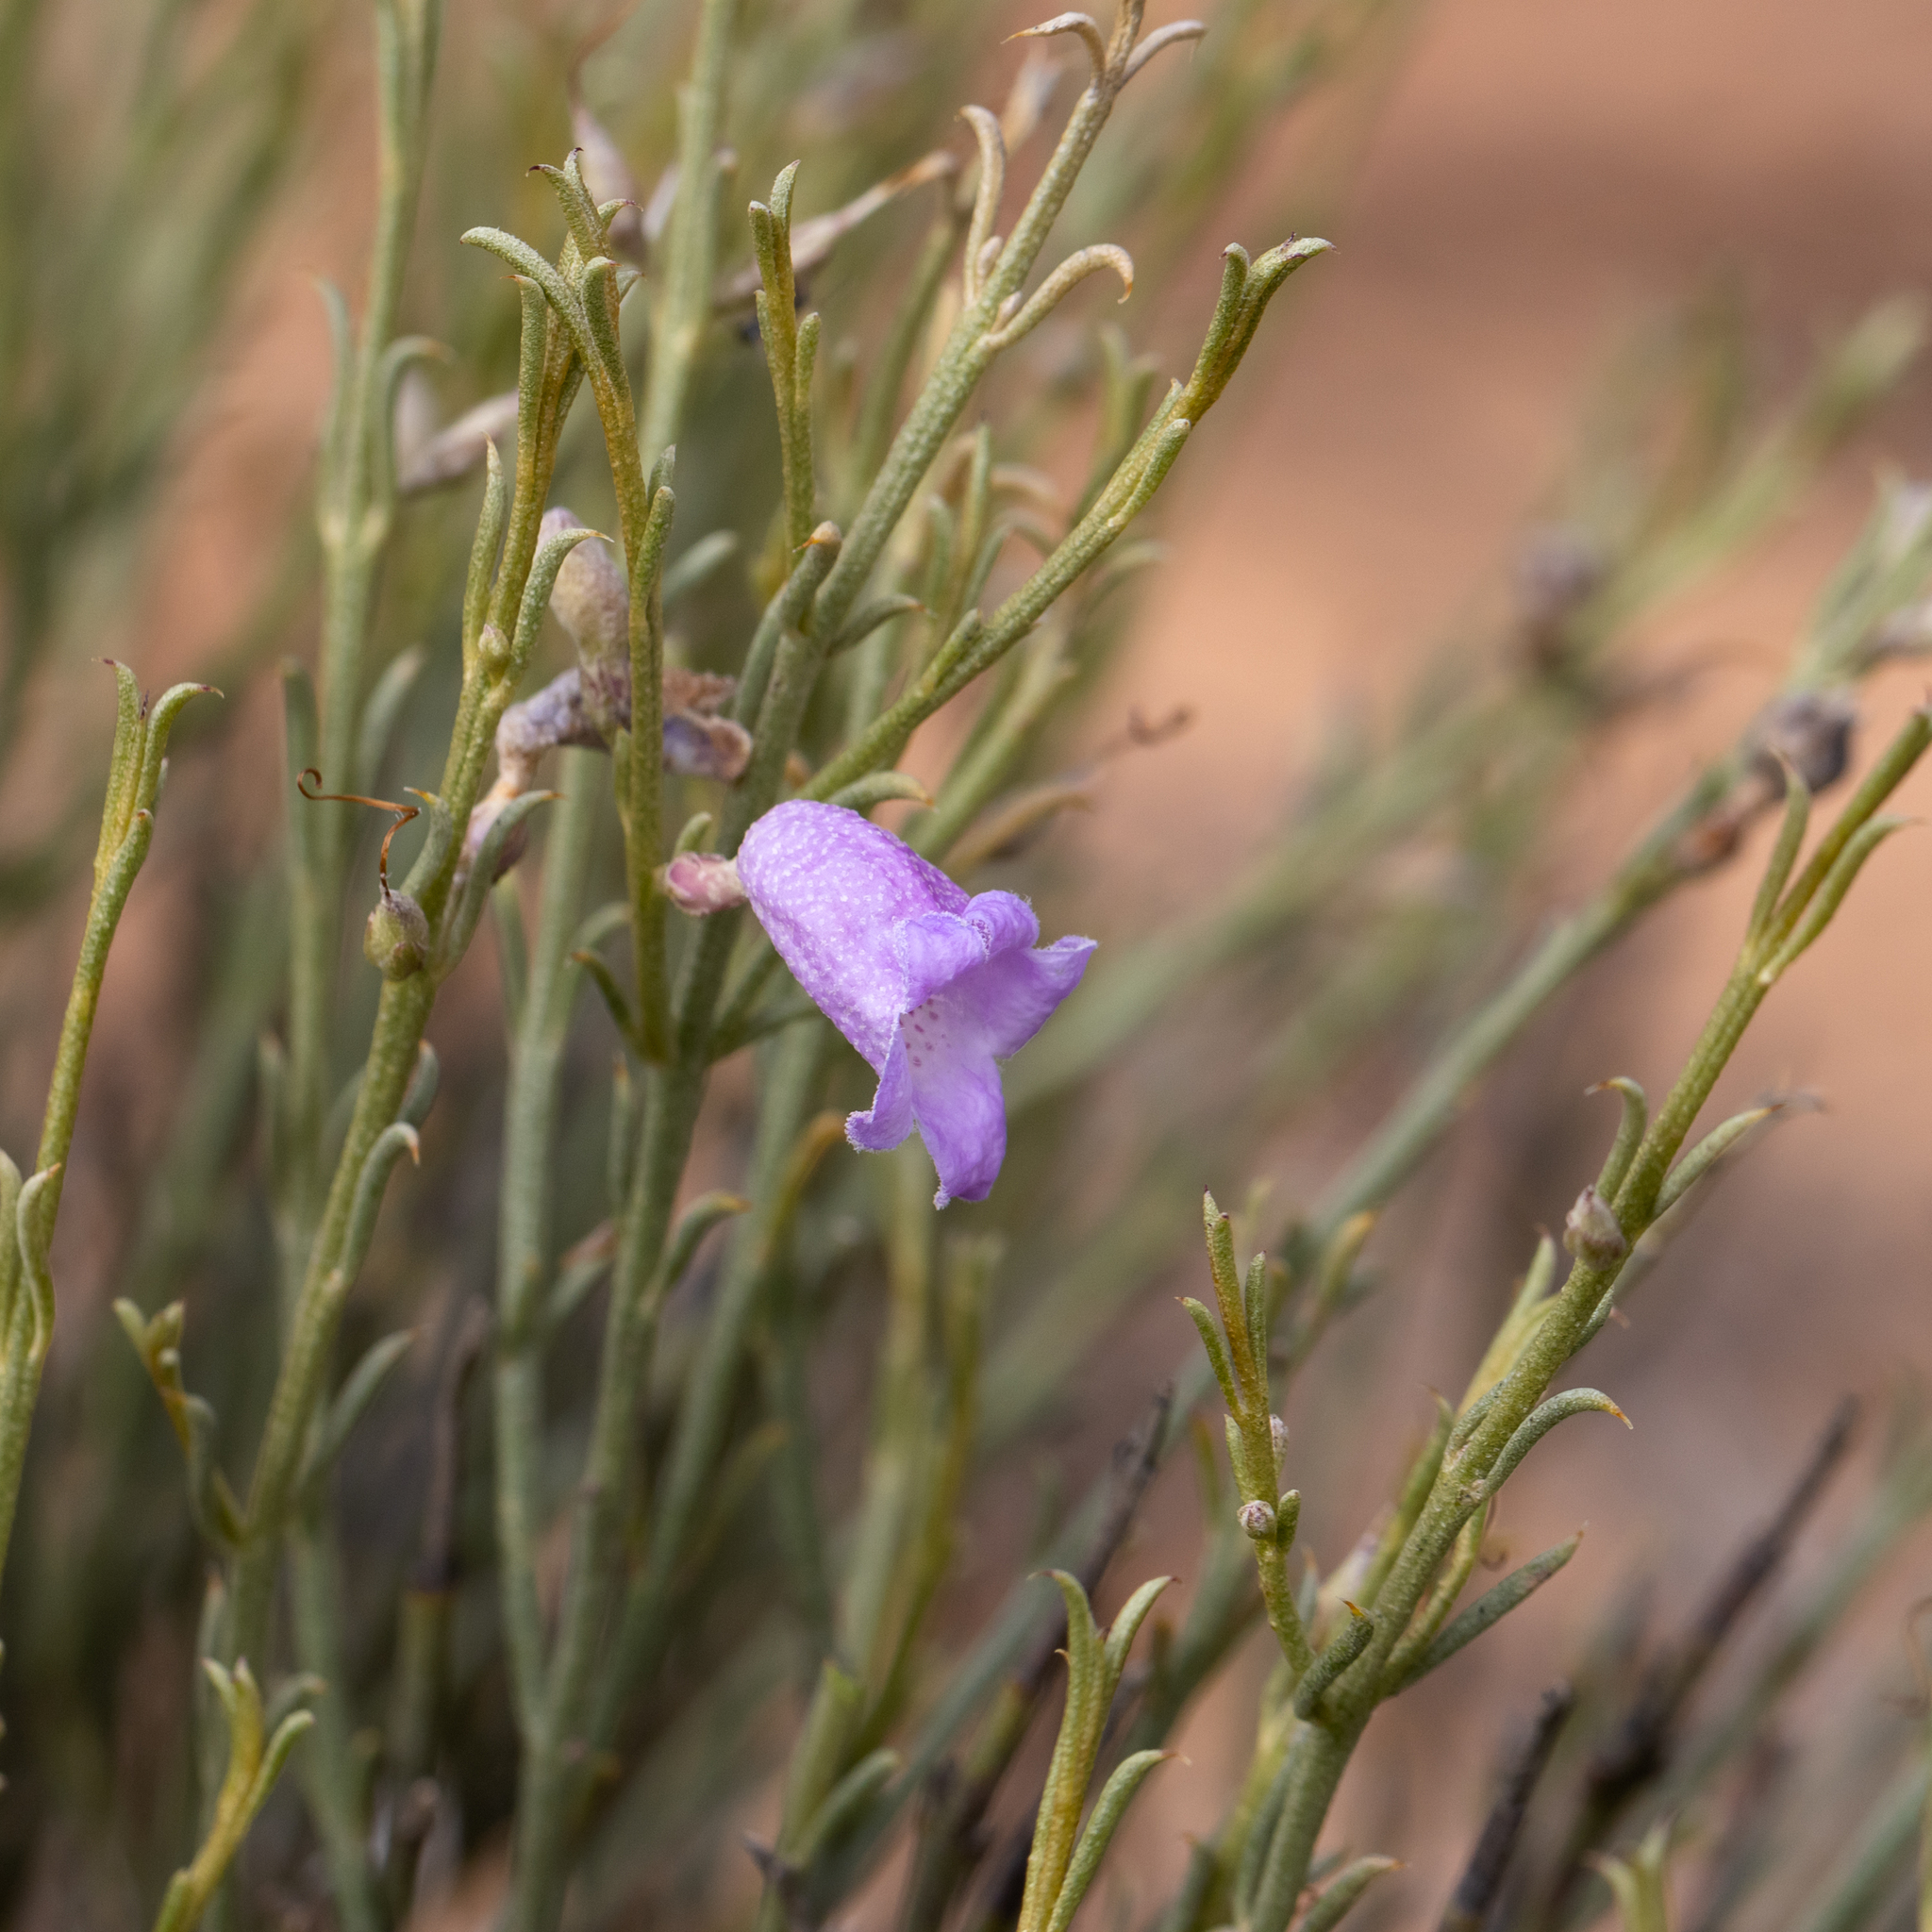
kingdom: Plantae
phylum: Tracheophyta
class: Magnoliopsida
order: Lamiales
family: Scrophulariaceae
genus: Eremophila
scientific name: Eremophila scoparia
